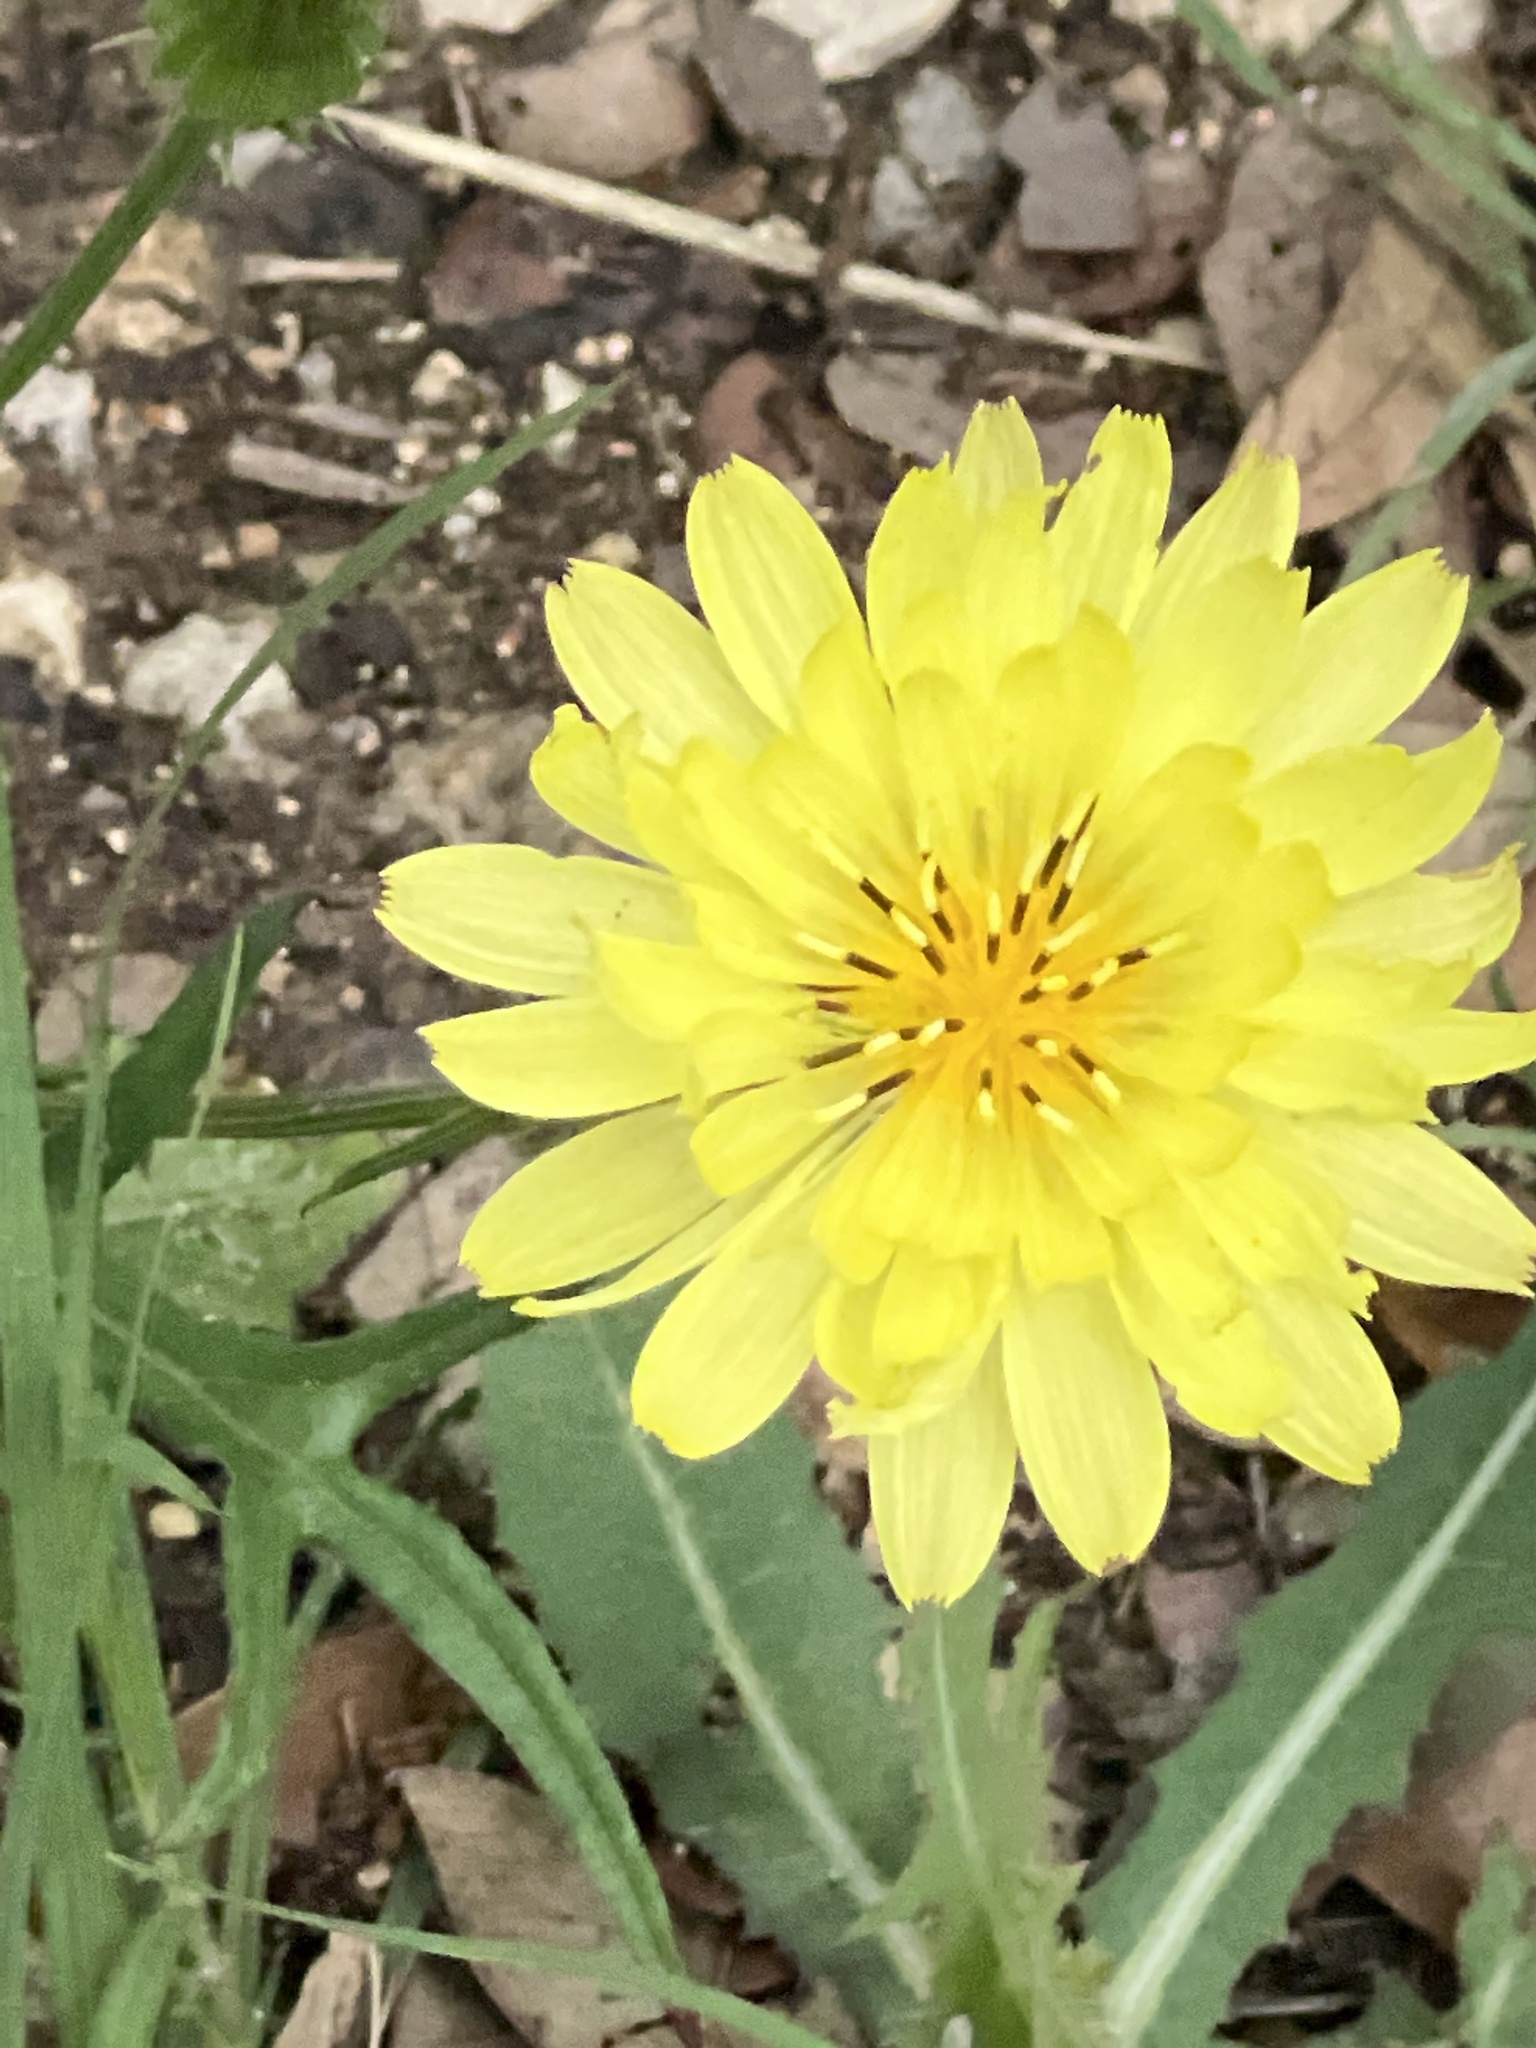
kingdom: Plantae
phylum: Tracheophyta
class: Magnoliopsida
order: Asterales
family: Asteraceae
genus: Pyrrhopappus
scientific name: Pyrrhopappus pauciflorus
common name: Texas false dandelion
